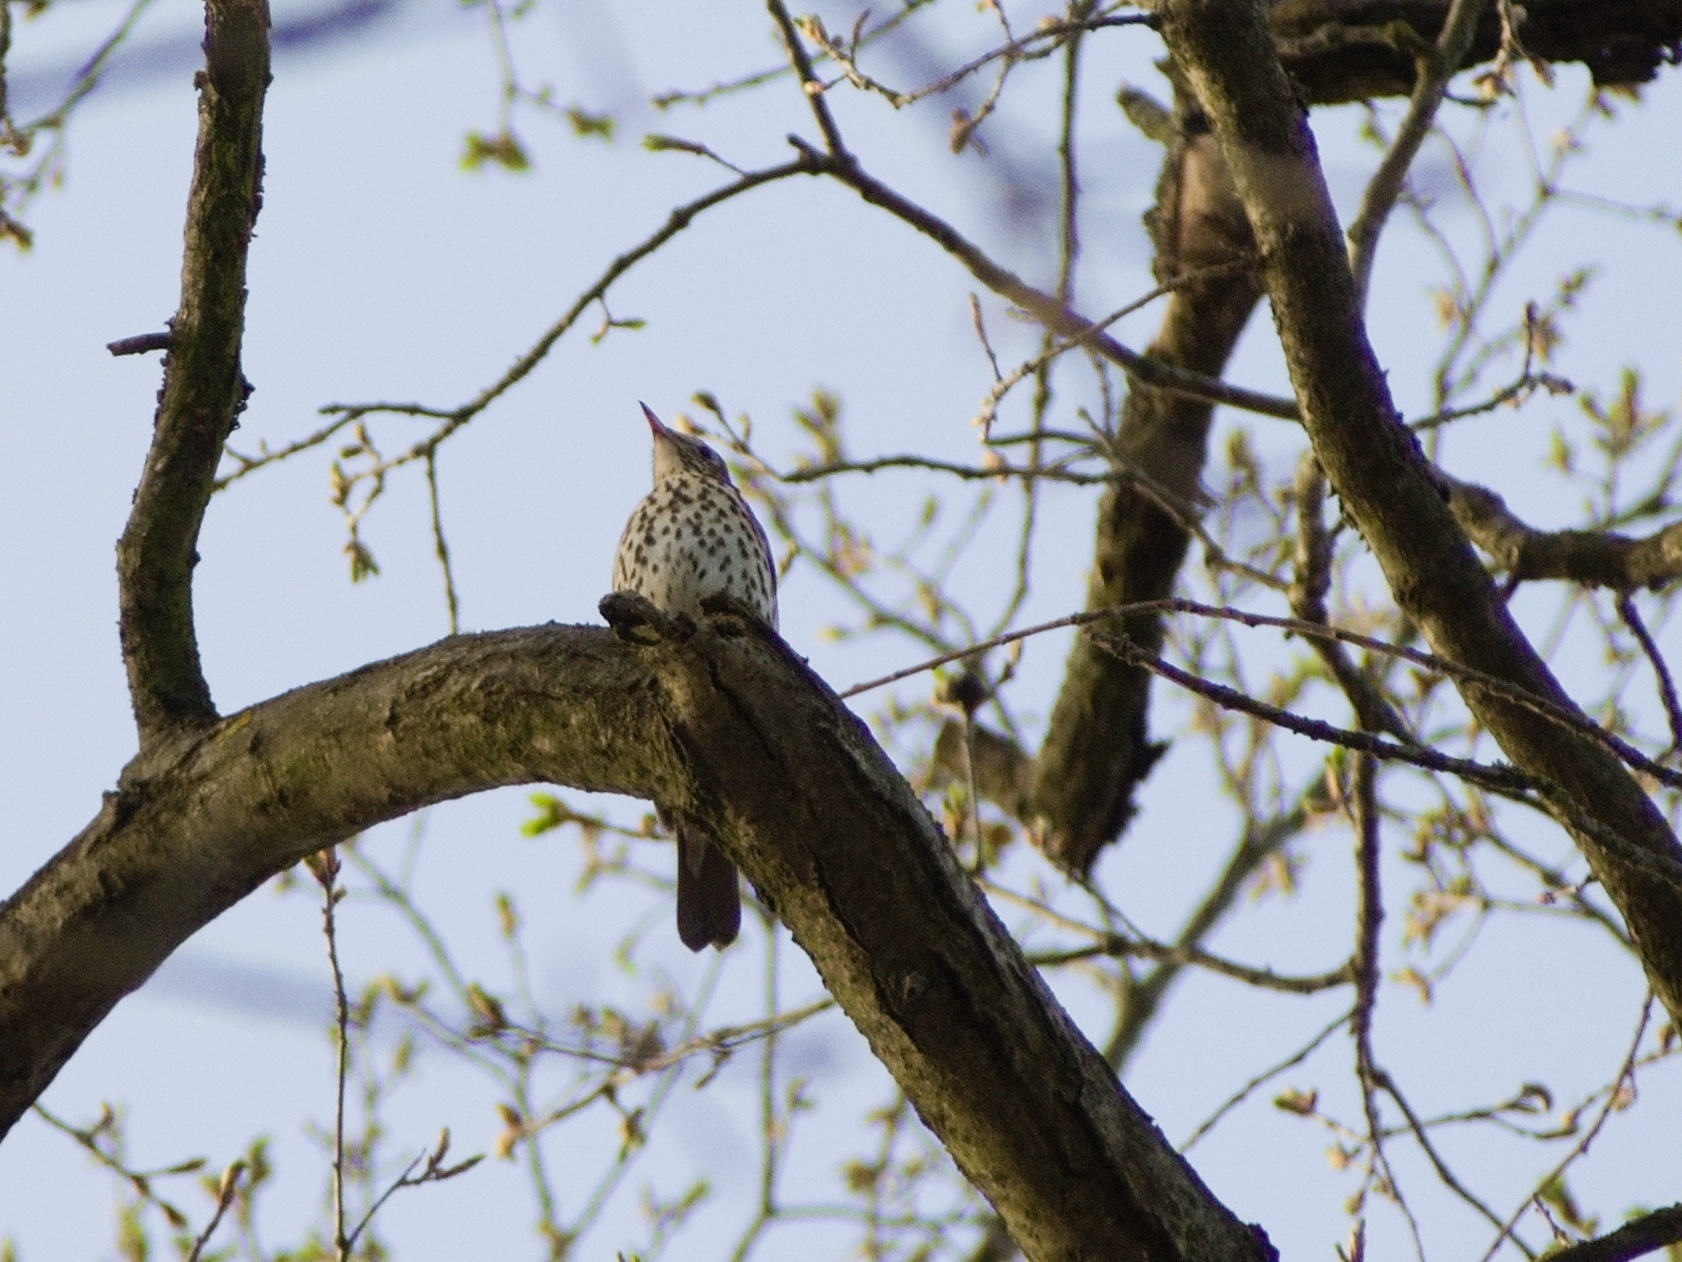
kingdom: Animalia
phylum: Chordata
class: Aves
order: Passeriformes
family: Turdidae
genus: Turdus
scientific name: Turdus philomelos
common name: Song thrush
